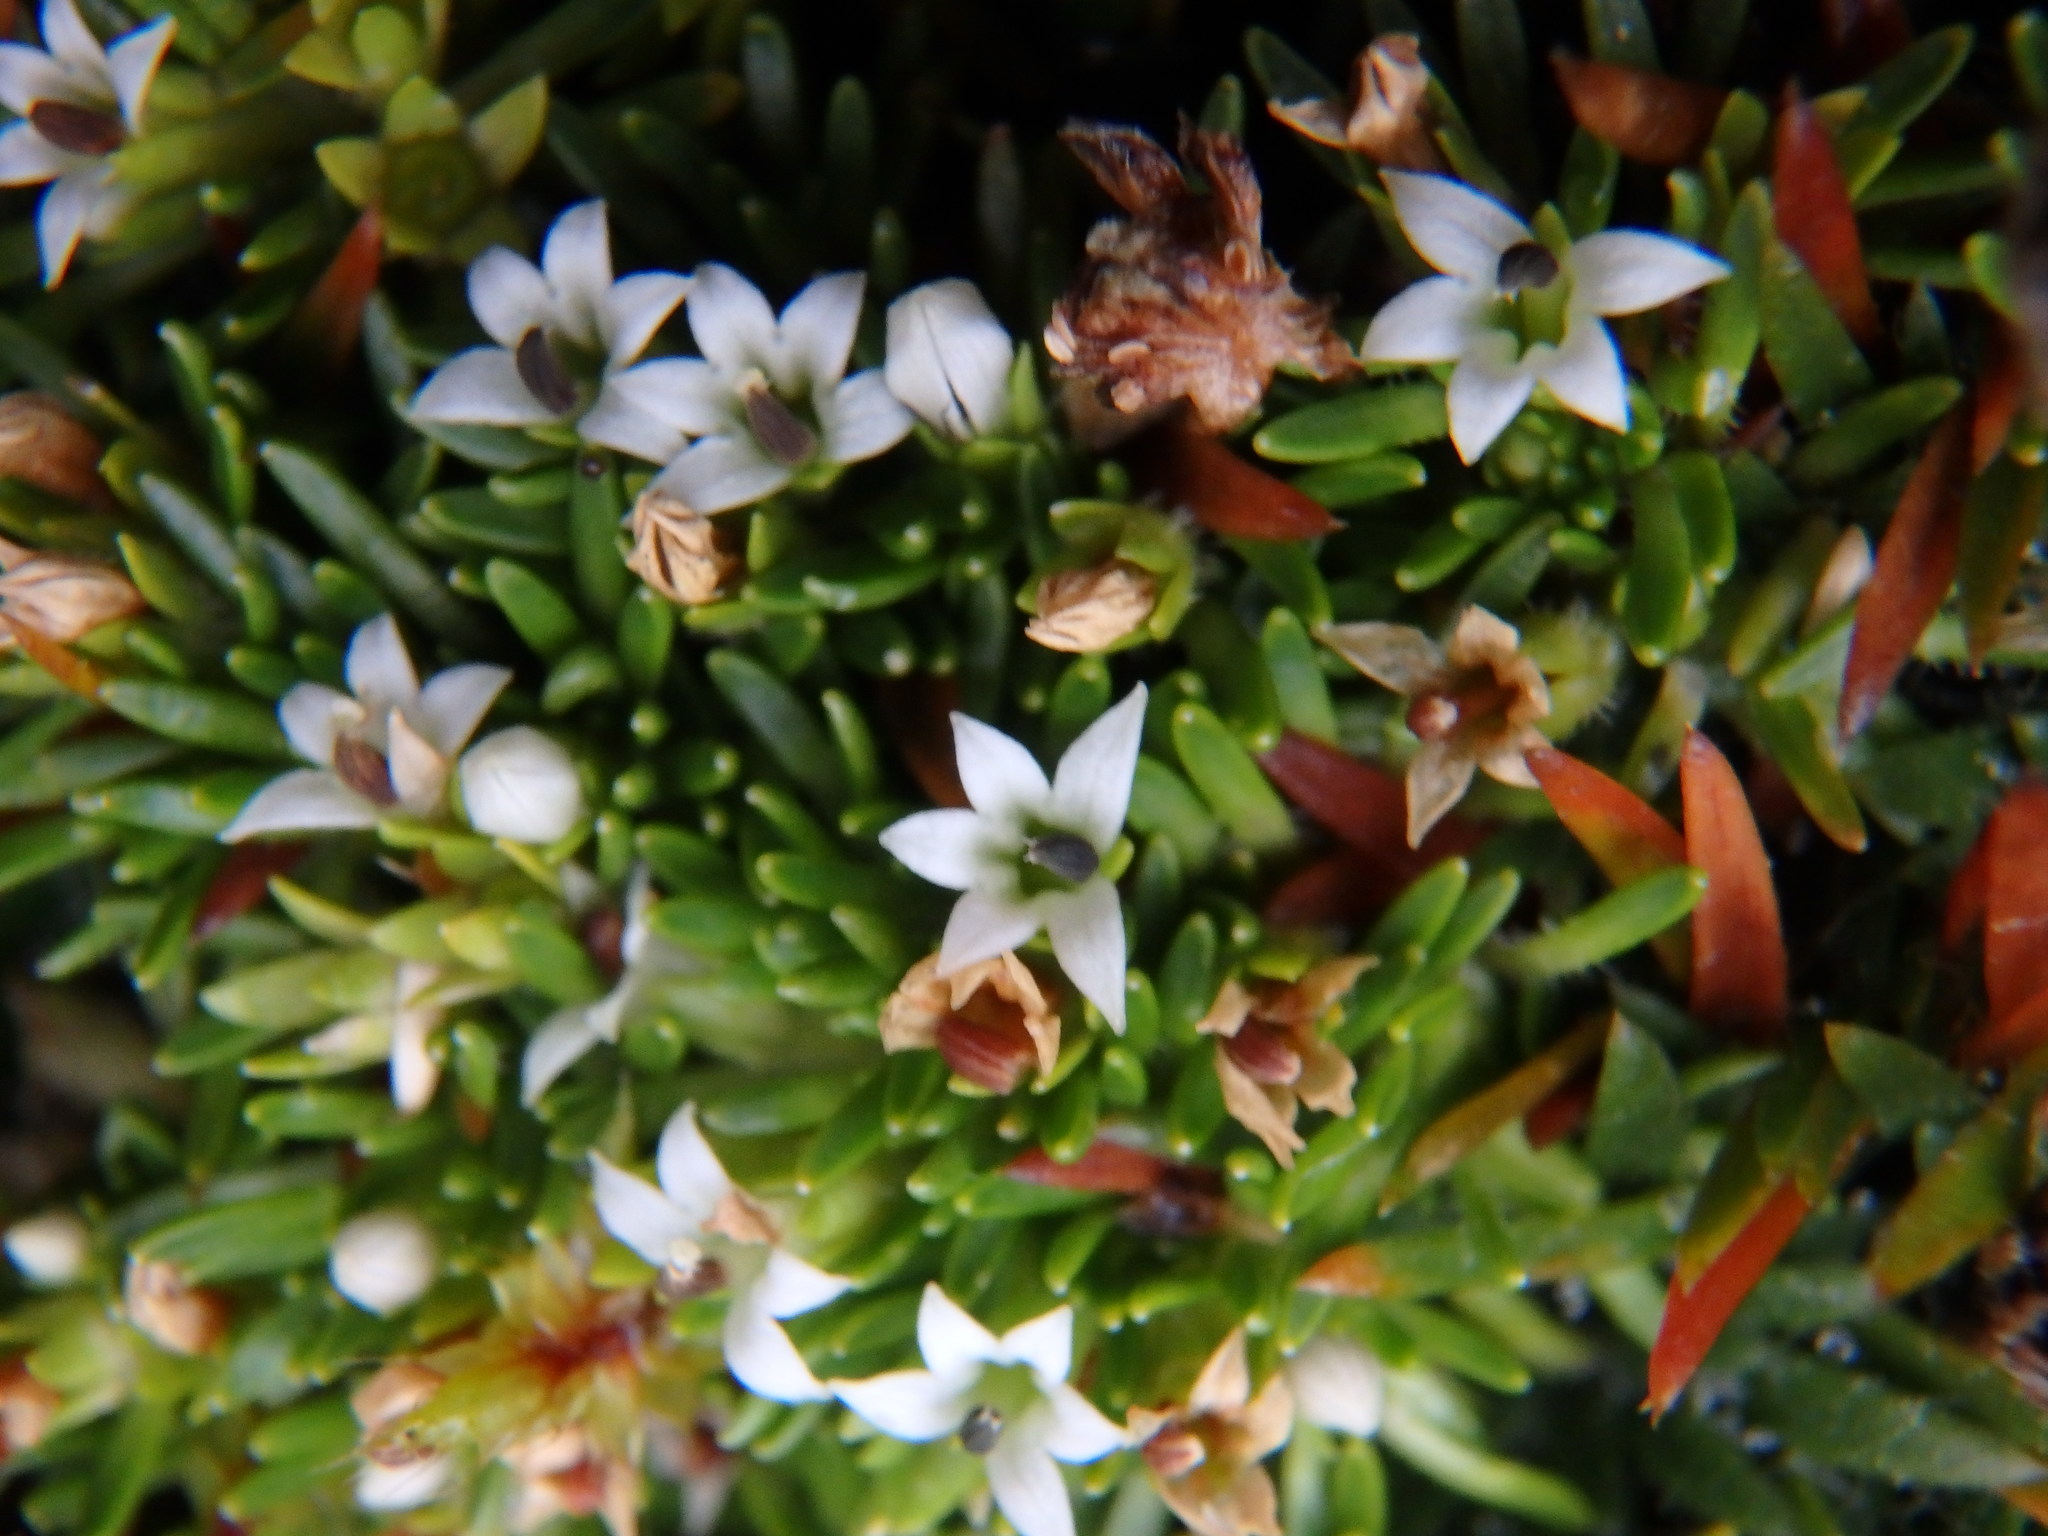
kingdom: Plantae
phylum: Tracheophyta
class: Magnoliopsida
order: Asterales
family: Campanulaceae
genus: Lysipomia
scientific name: Lysipomia sphagnophila
